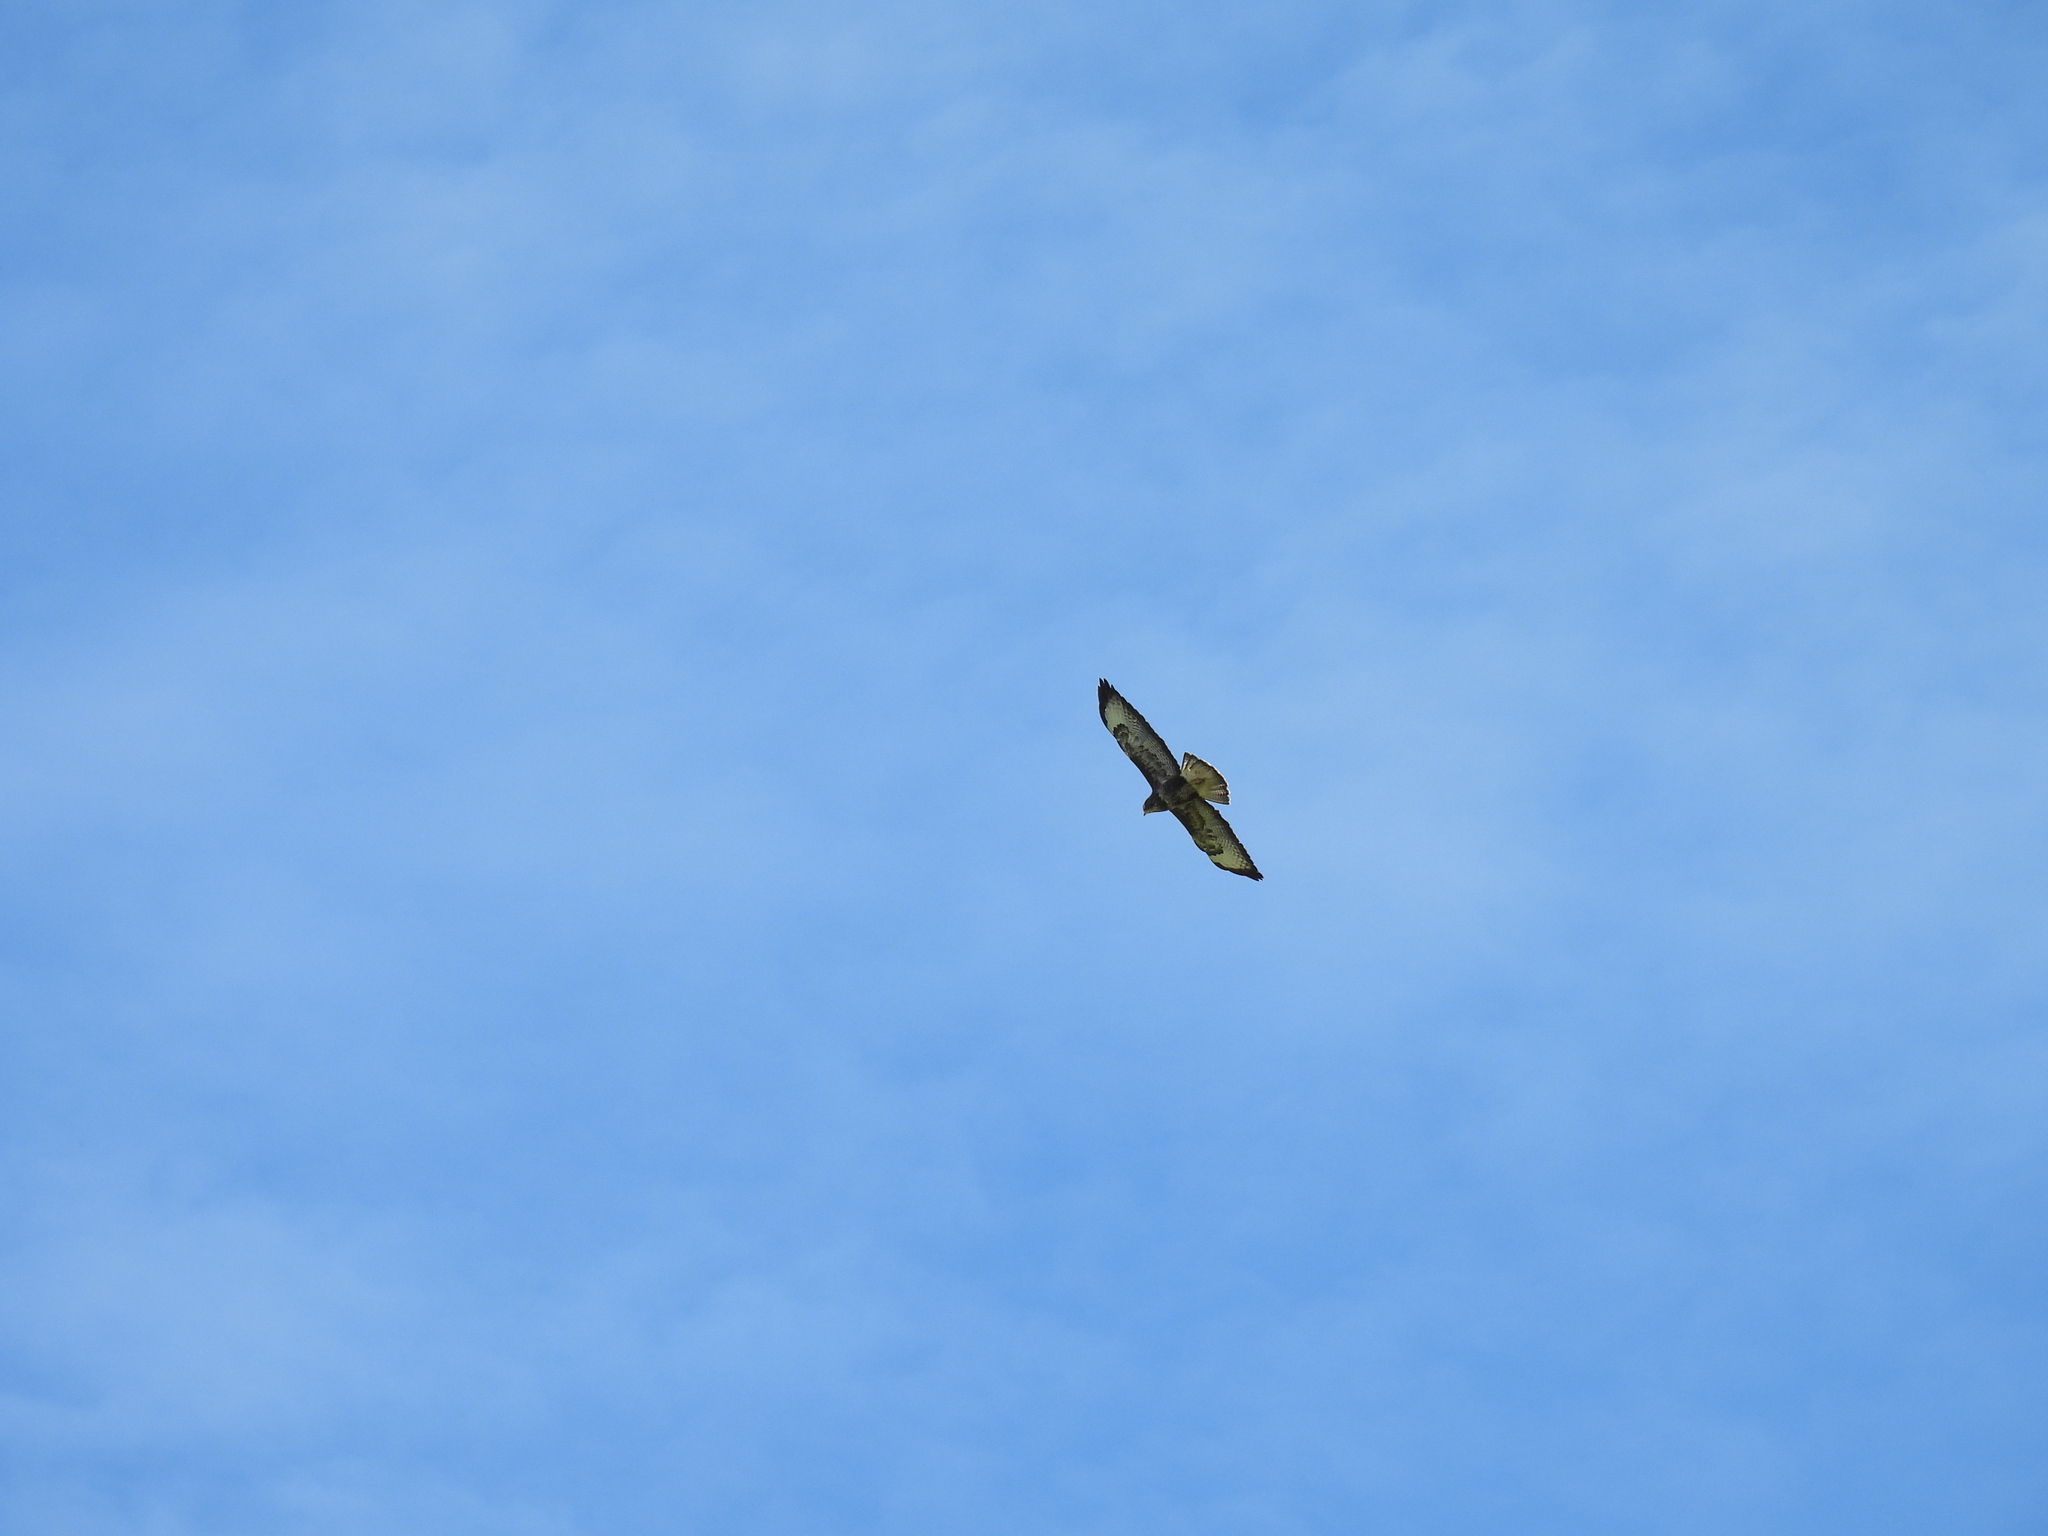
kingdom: Animalia
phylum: Chordata
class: Aves
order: Accipitriformes
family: Accipitridae
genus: Buteo
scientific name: Buteo buteo
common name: Common buzzard
